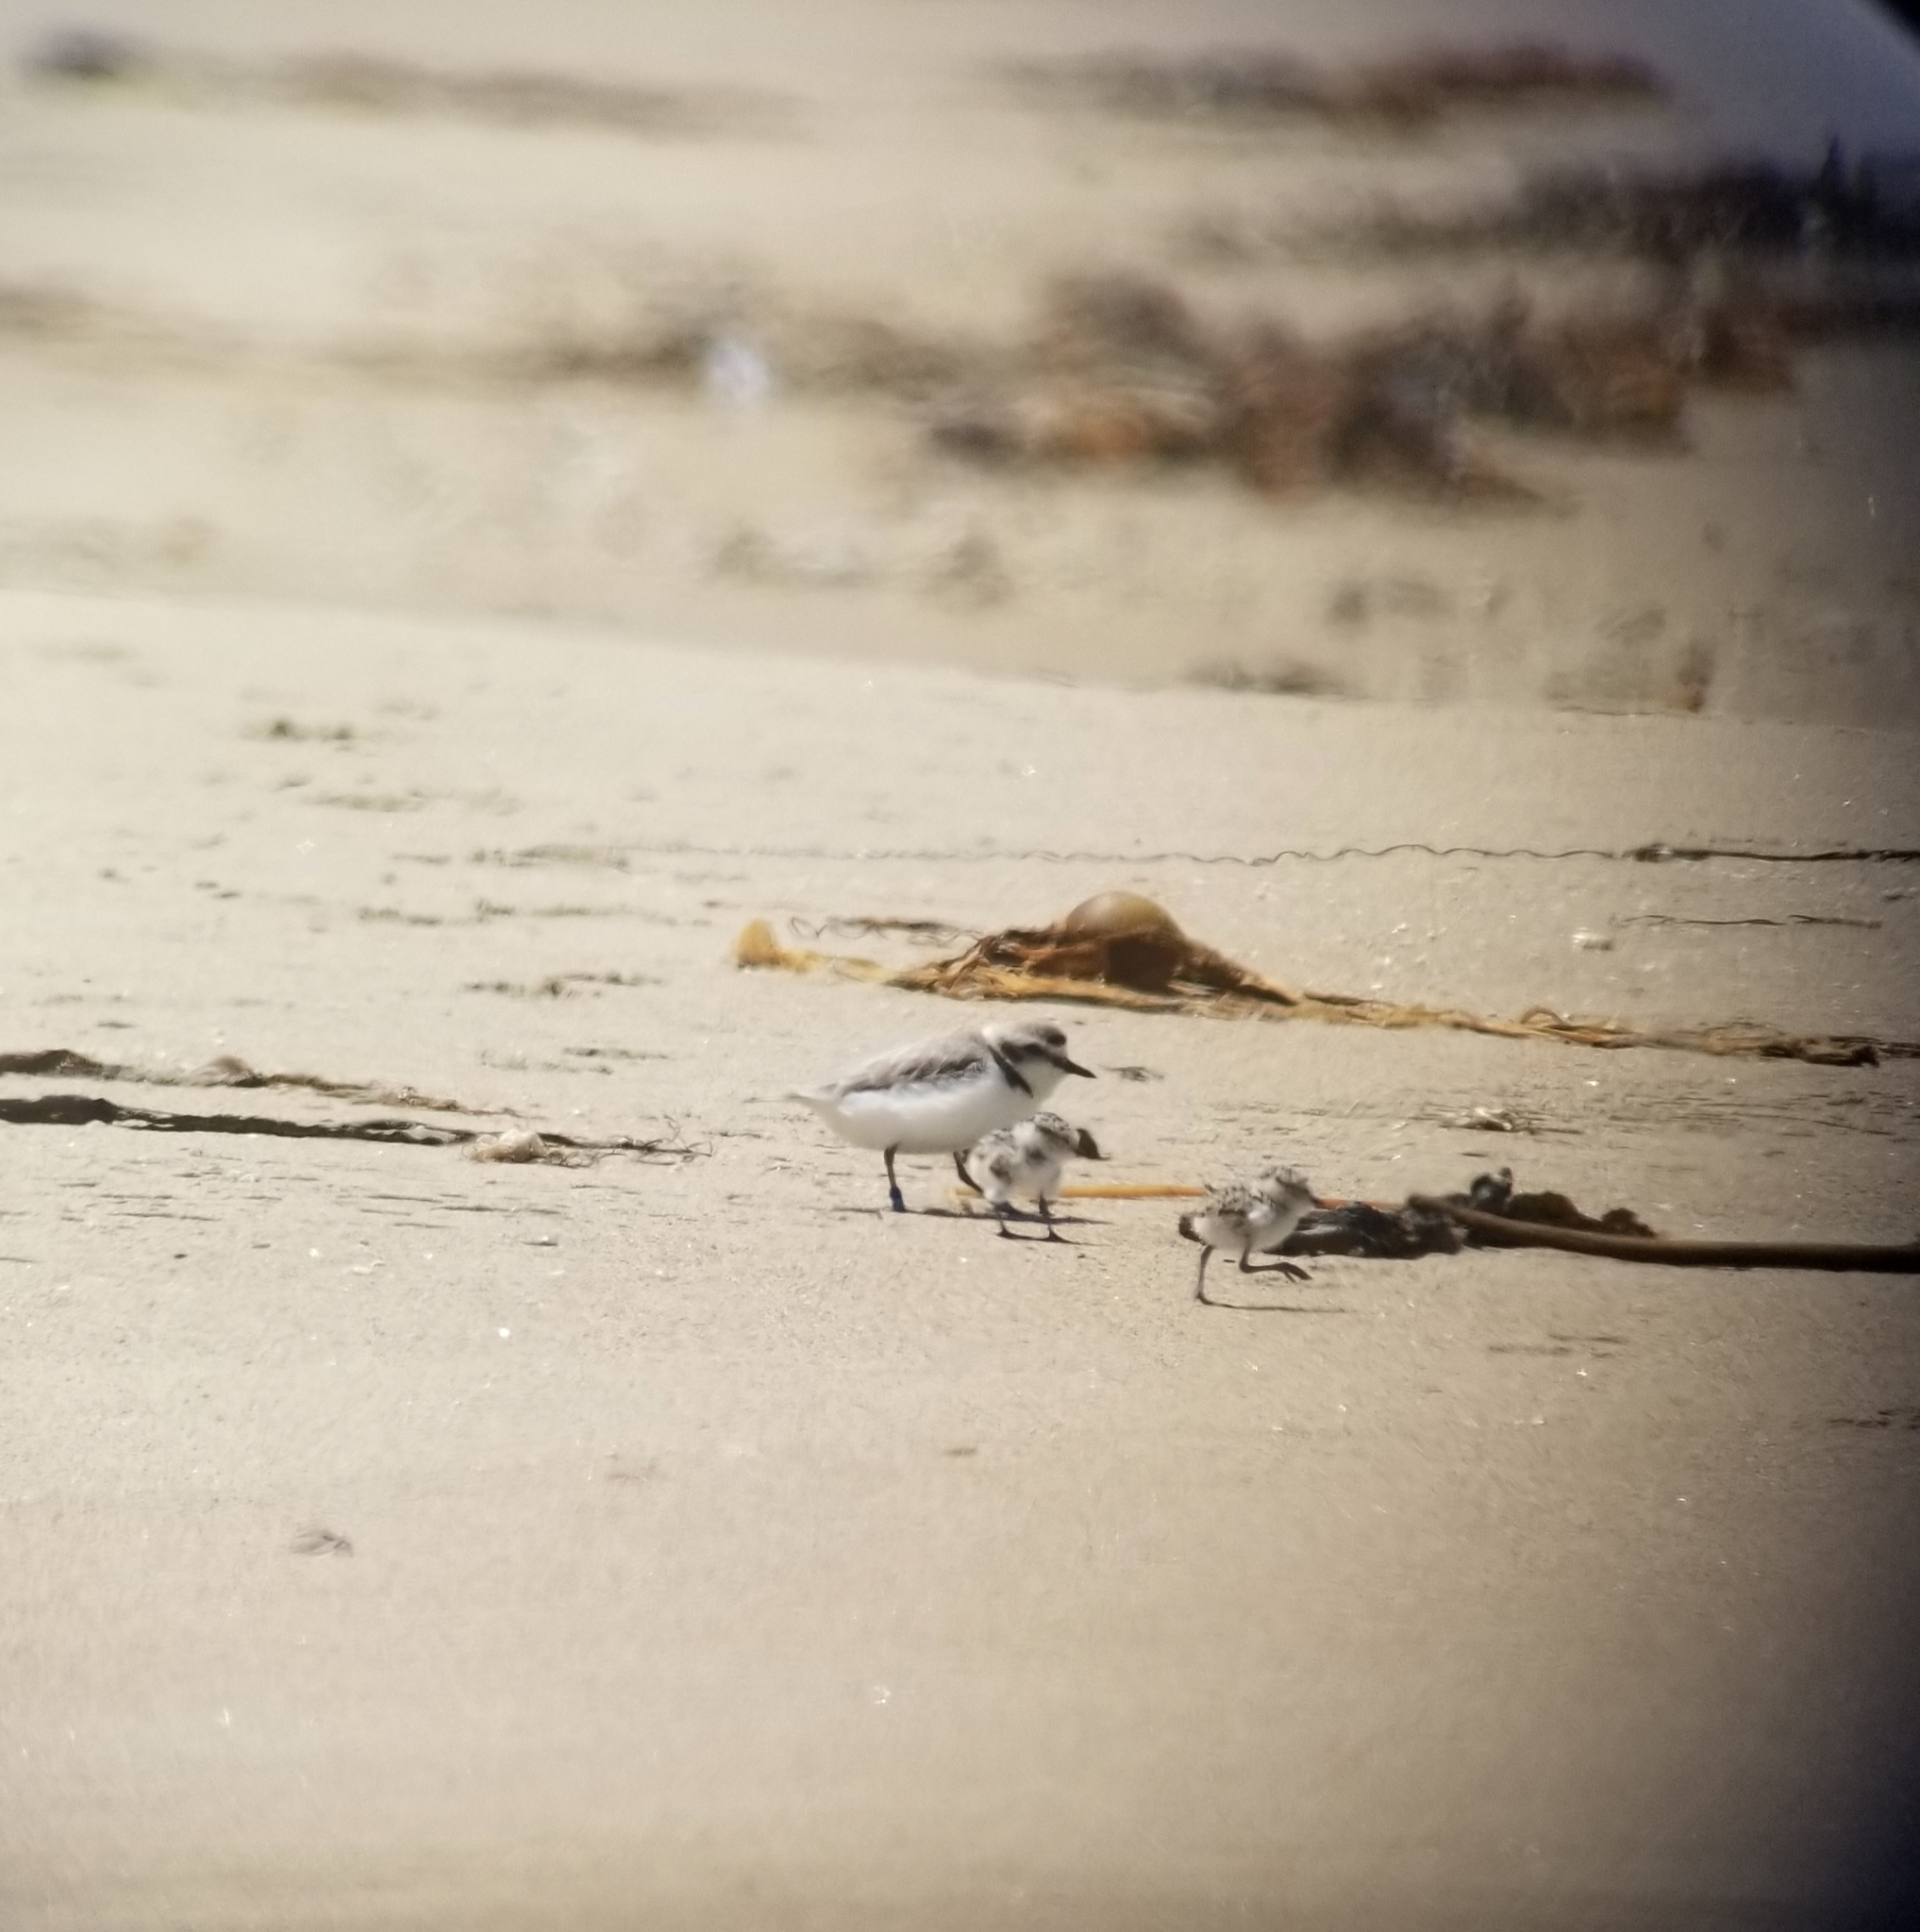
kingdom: Animalia
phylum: Chordata
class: Aves
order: Charadriiformes
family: Charadriidae
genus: Anarhynchus
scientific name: Anarhynchus
